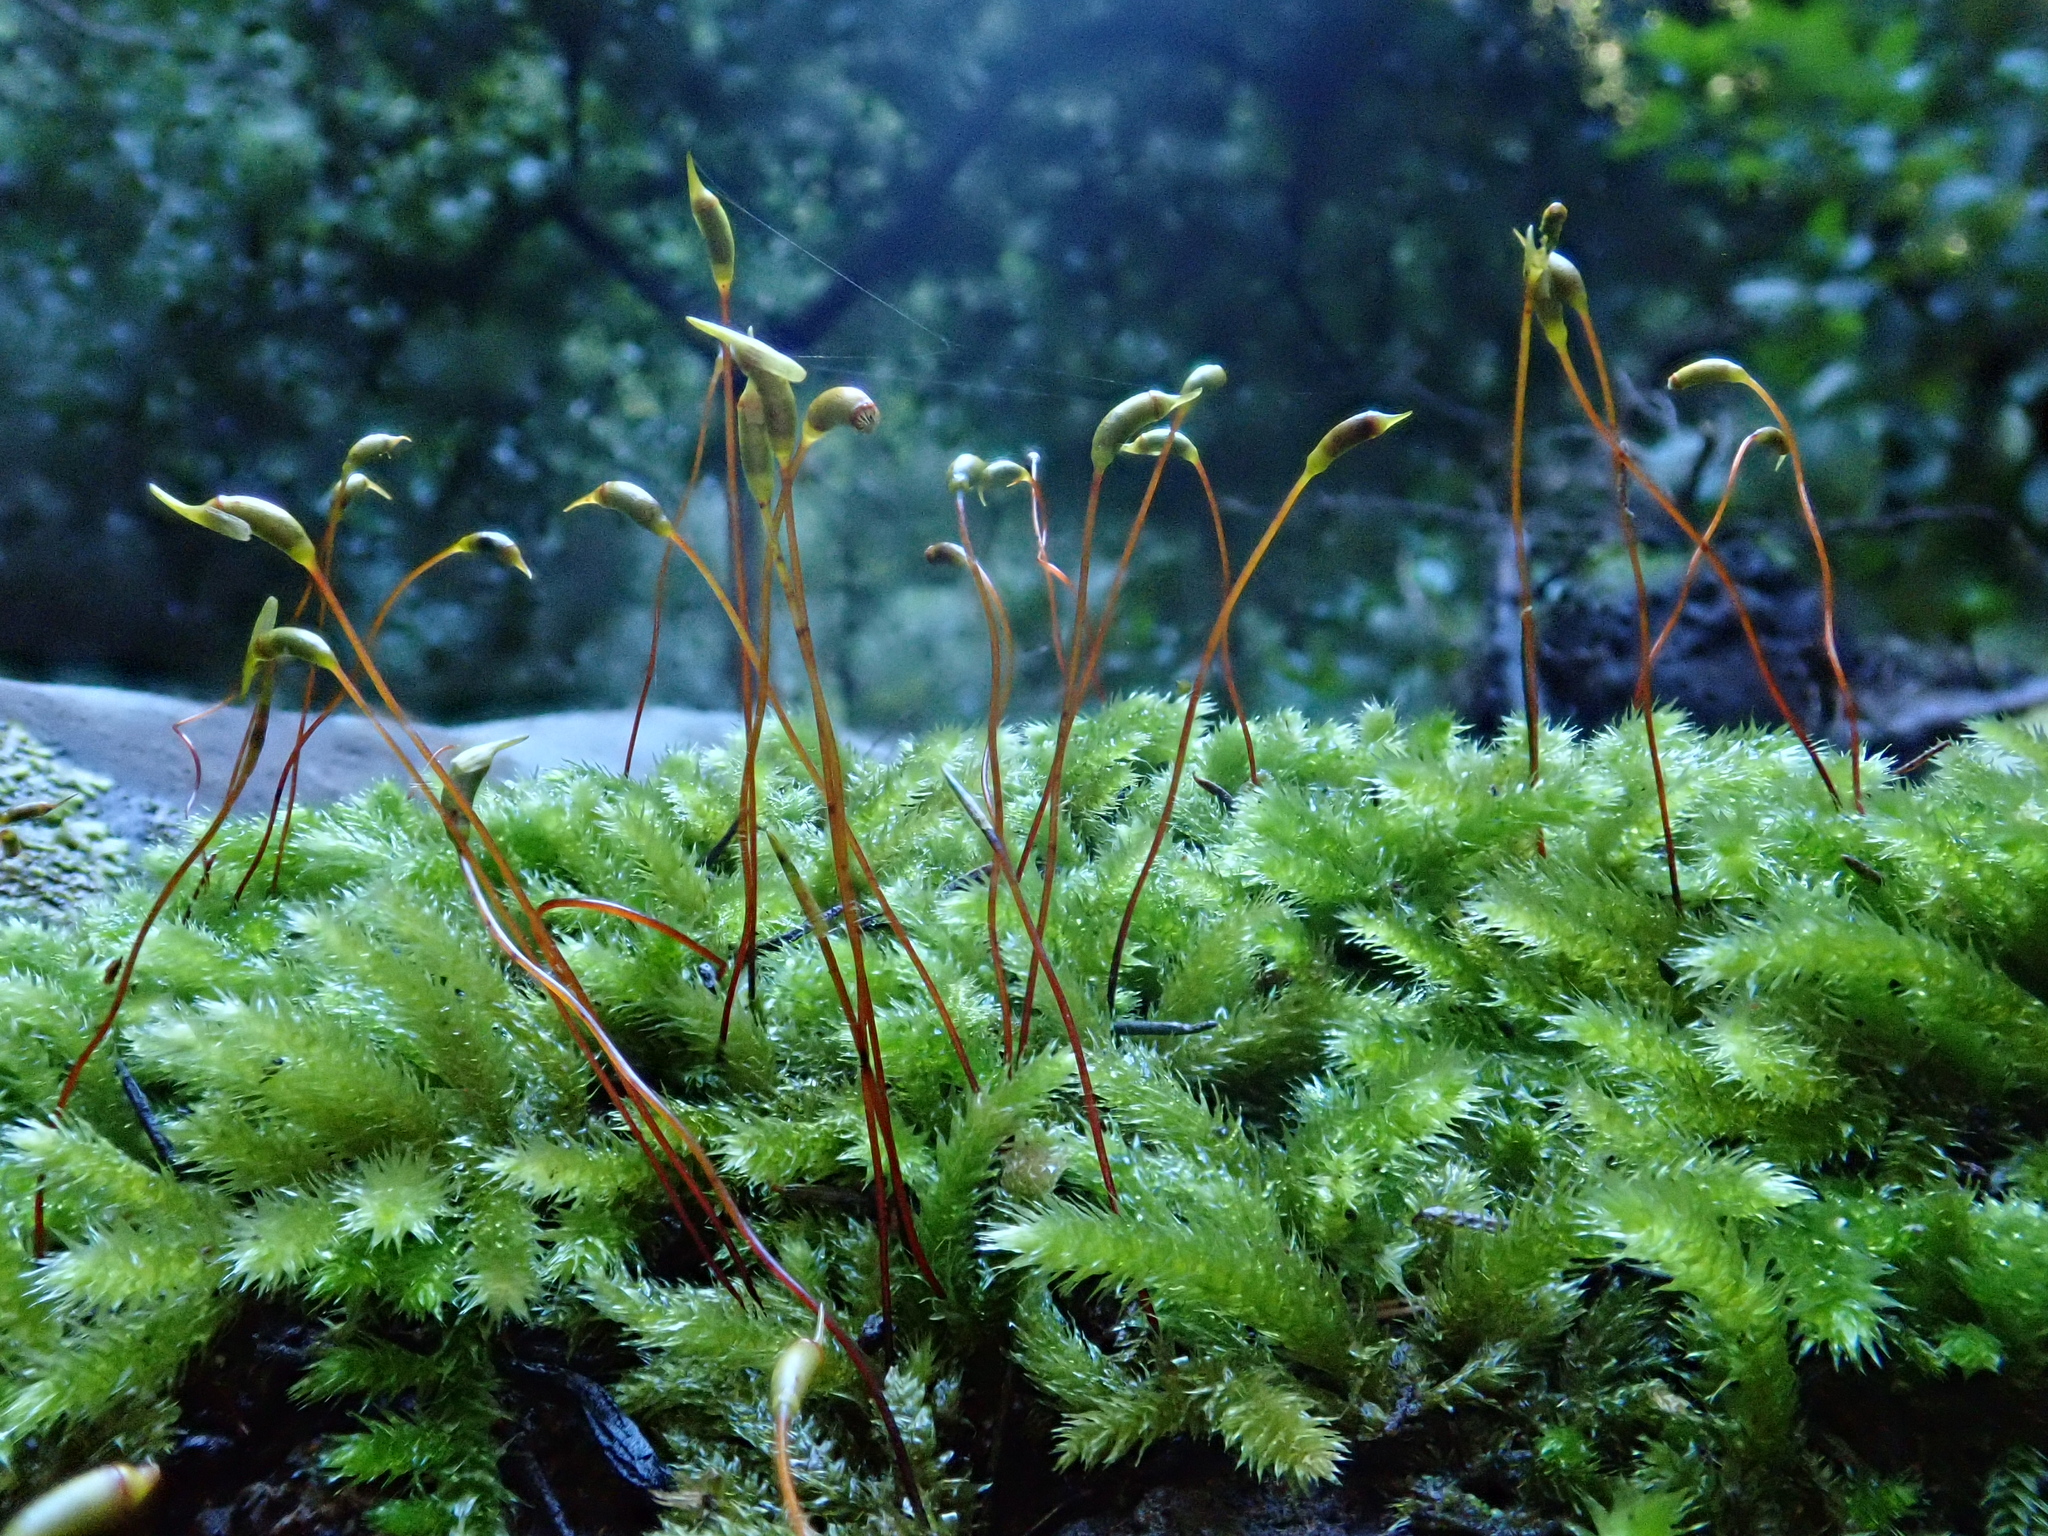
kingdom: Plantae
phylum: Bryophyta
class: Bryopsida
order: Hypnales
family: Brachytheciaceae
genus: Plasteurhynchium
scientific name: Plasteurhynchium meridionale
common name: Portland feather-moss
